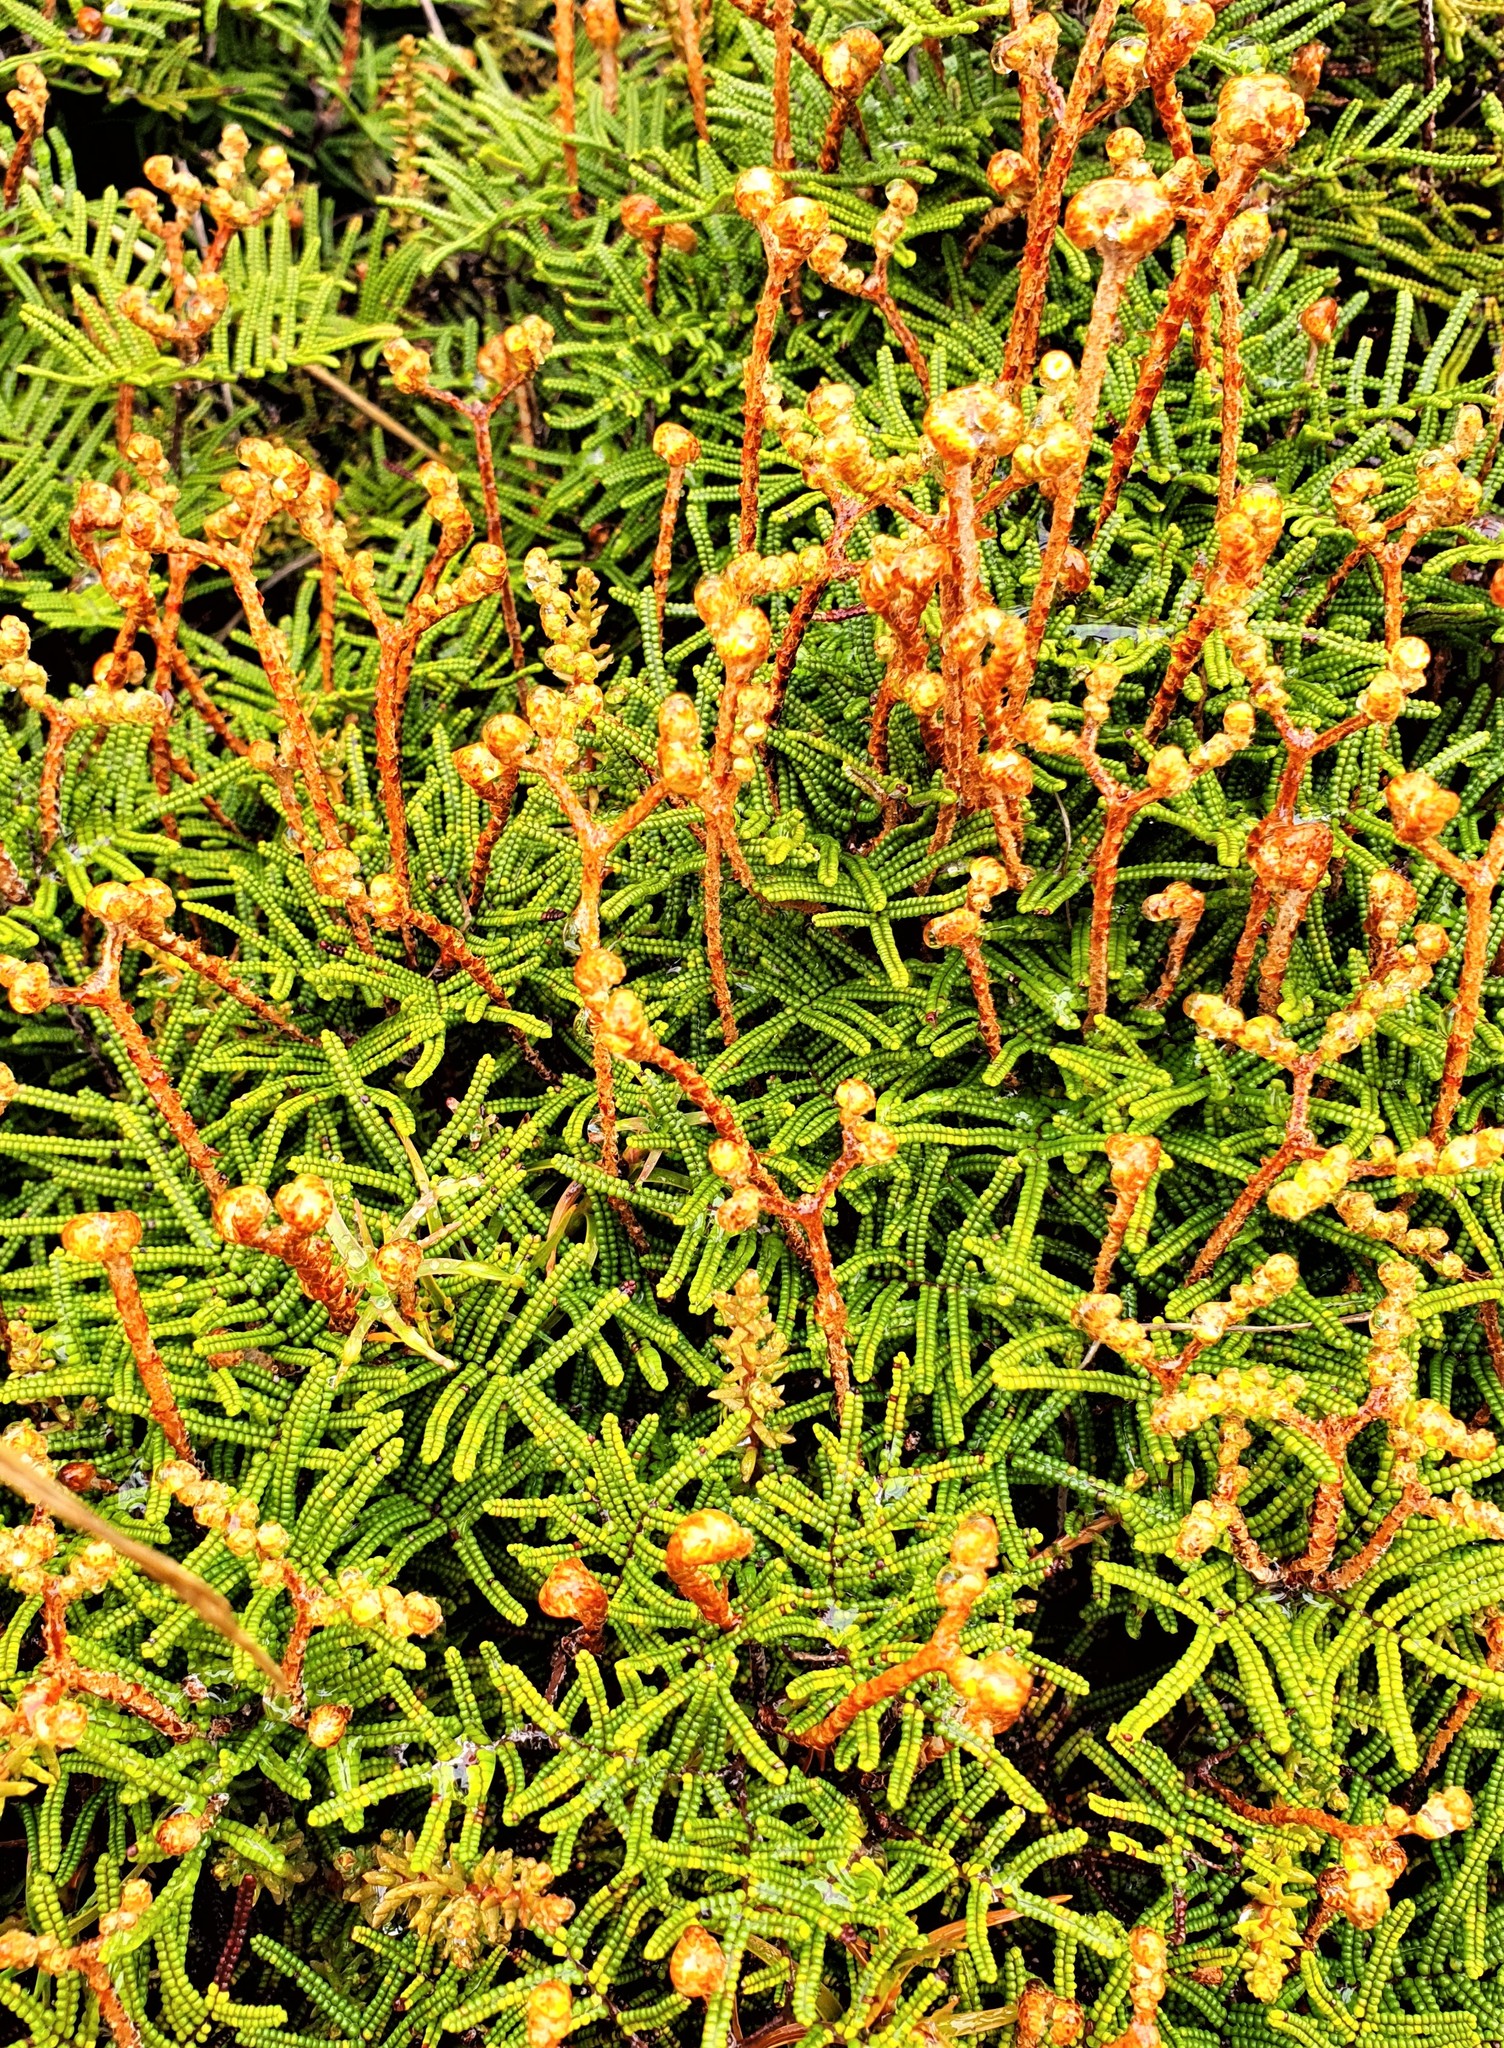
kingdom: Plantae
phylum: Tracheophyta
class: Polypodiopsida
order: Gleicheniales
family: Gleicheniaceae
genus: Gleichenia
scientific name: Gleichenia alpina
